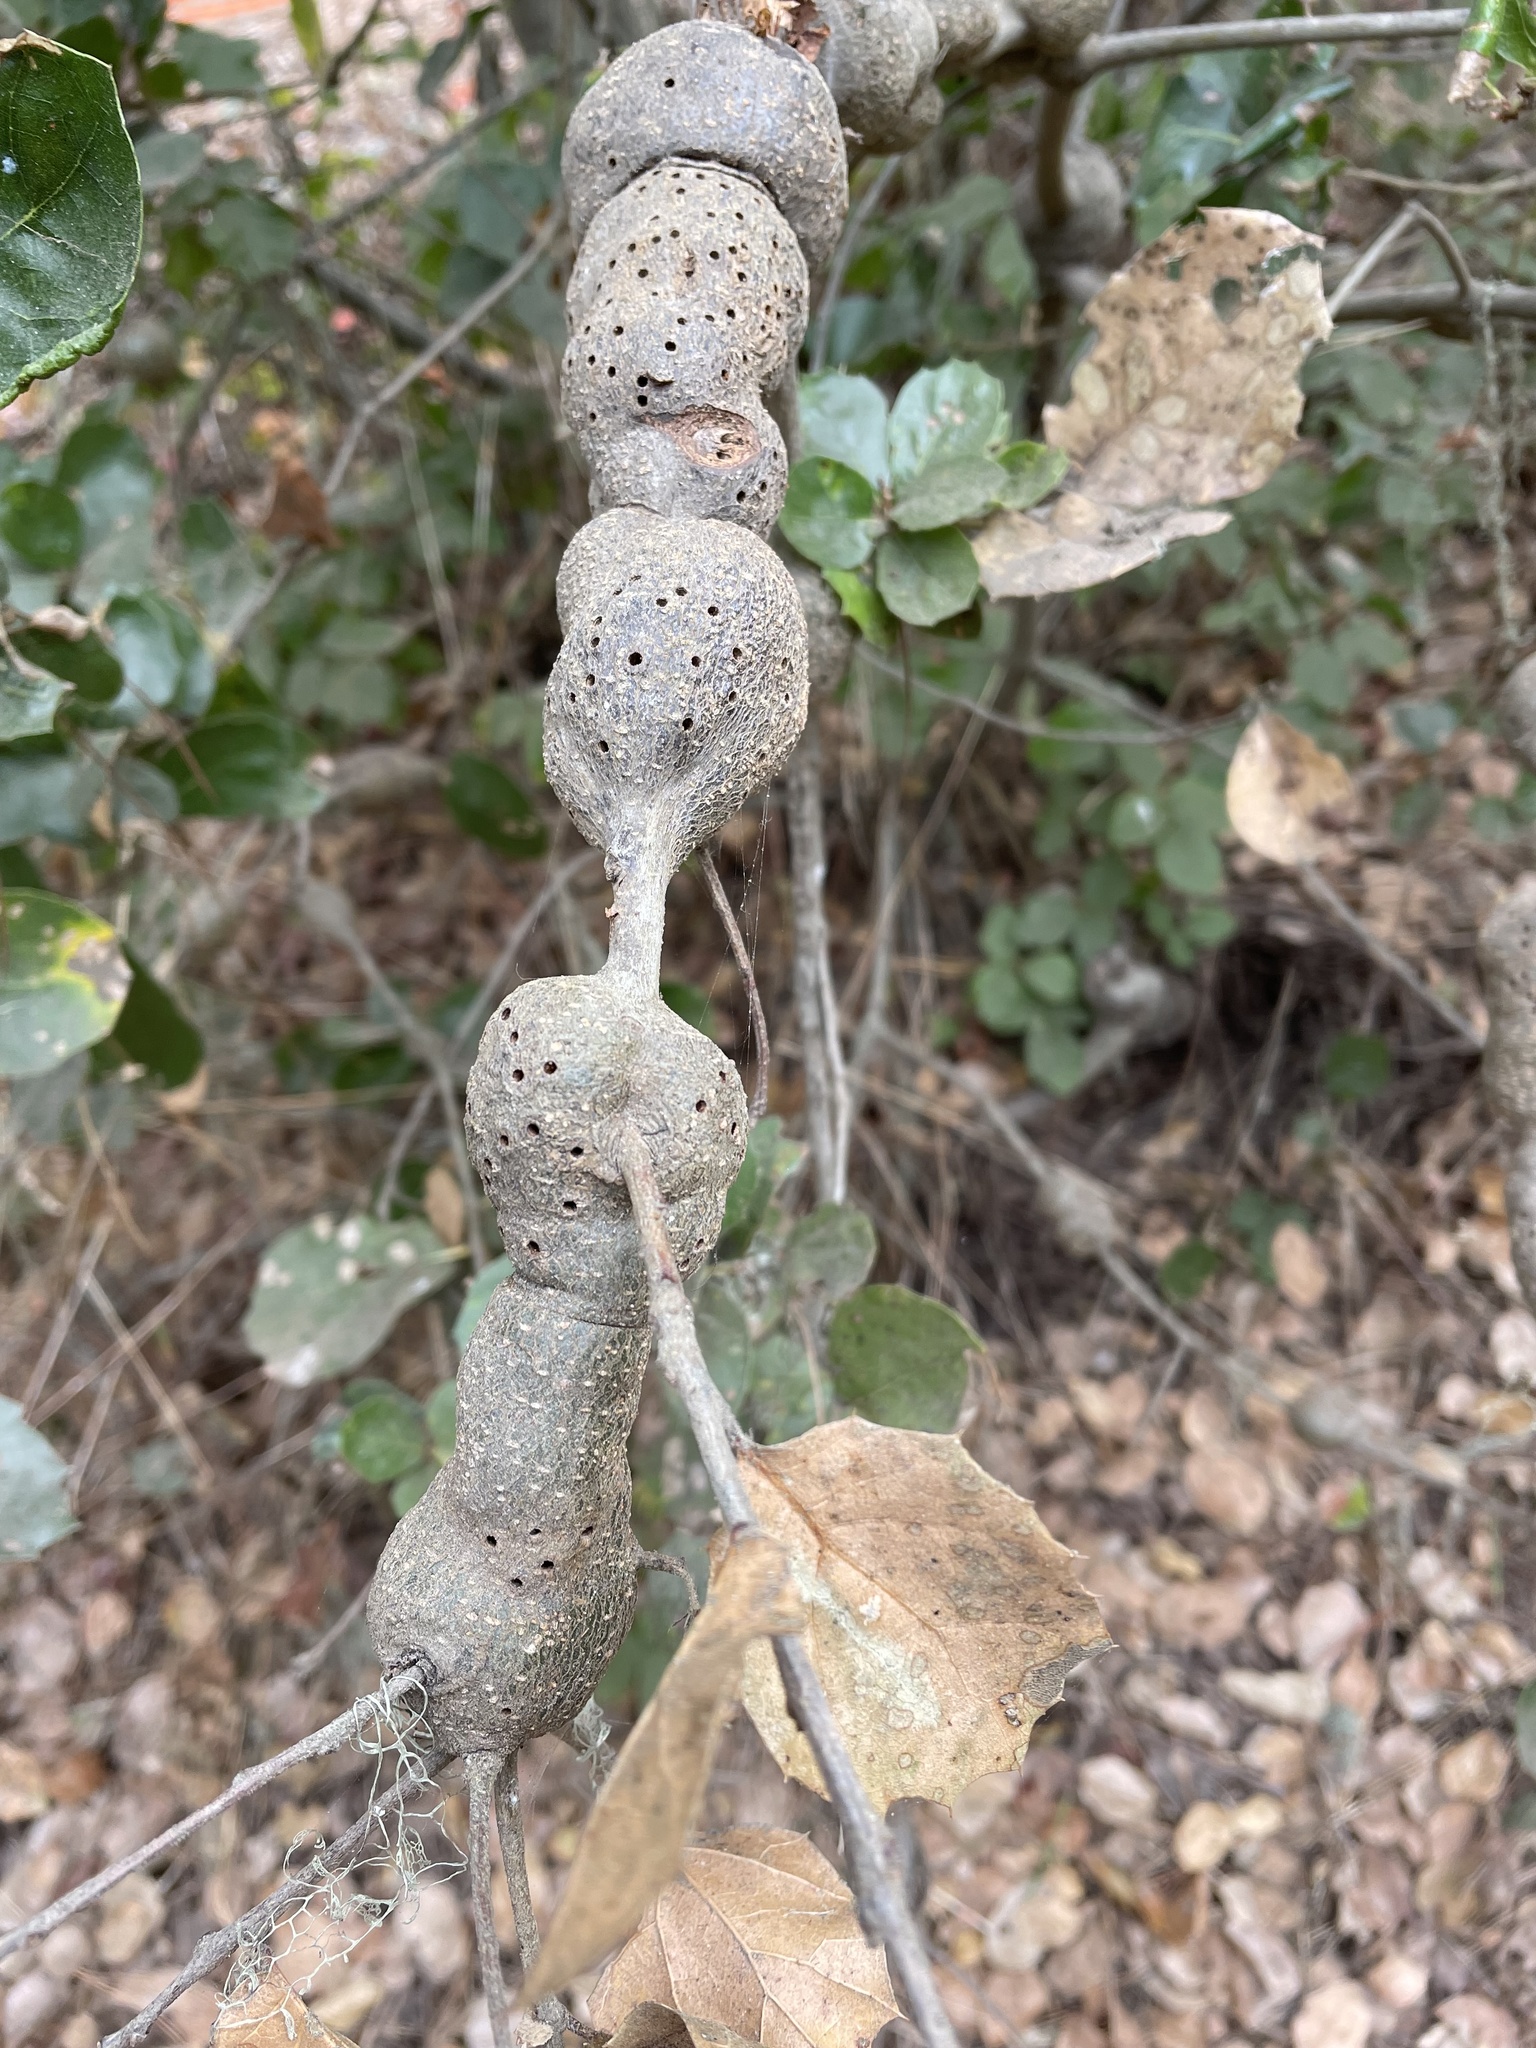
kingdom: Animalia
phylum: Arthropoda
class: Insecta
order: Hymenoptera
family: Cynipidae
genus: Callirhytis
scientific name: Callirhytis
